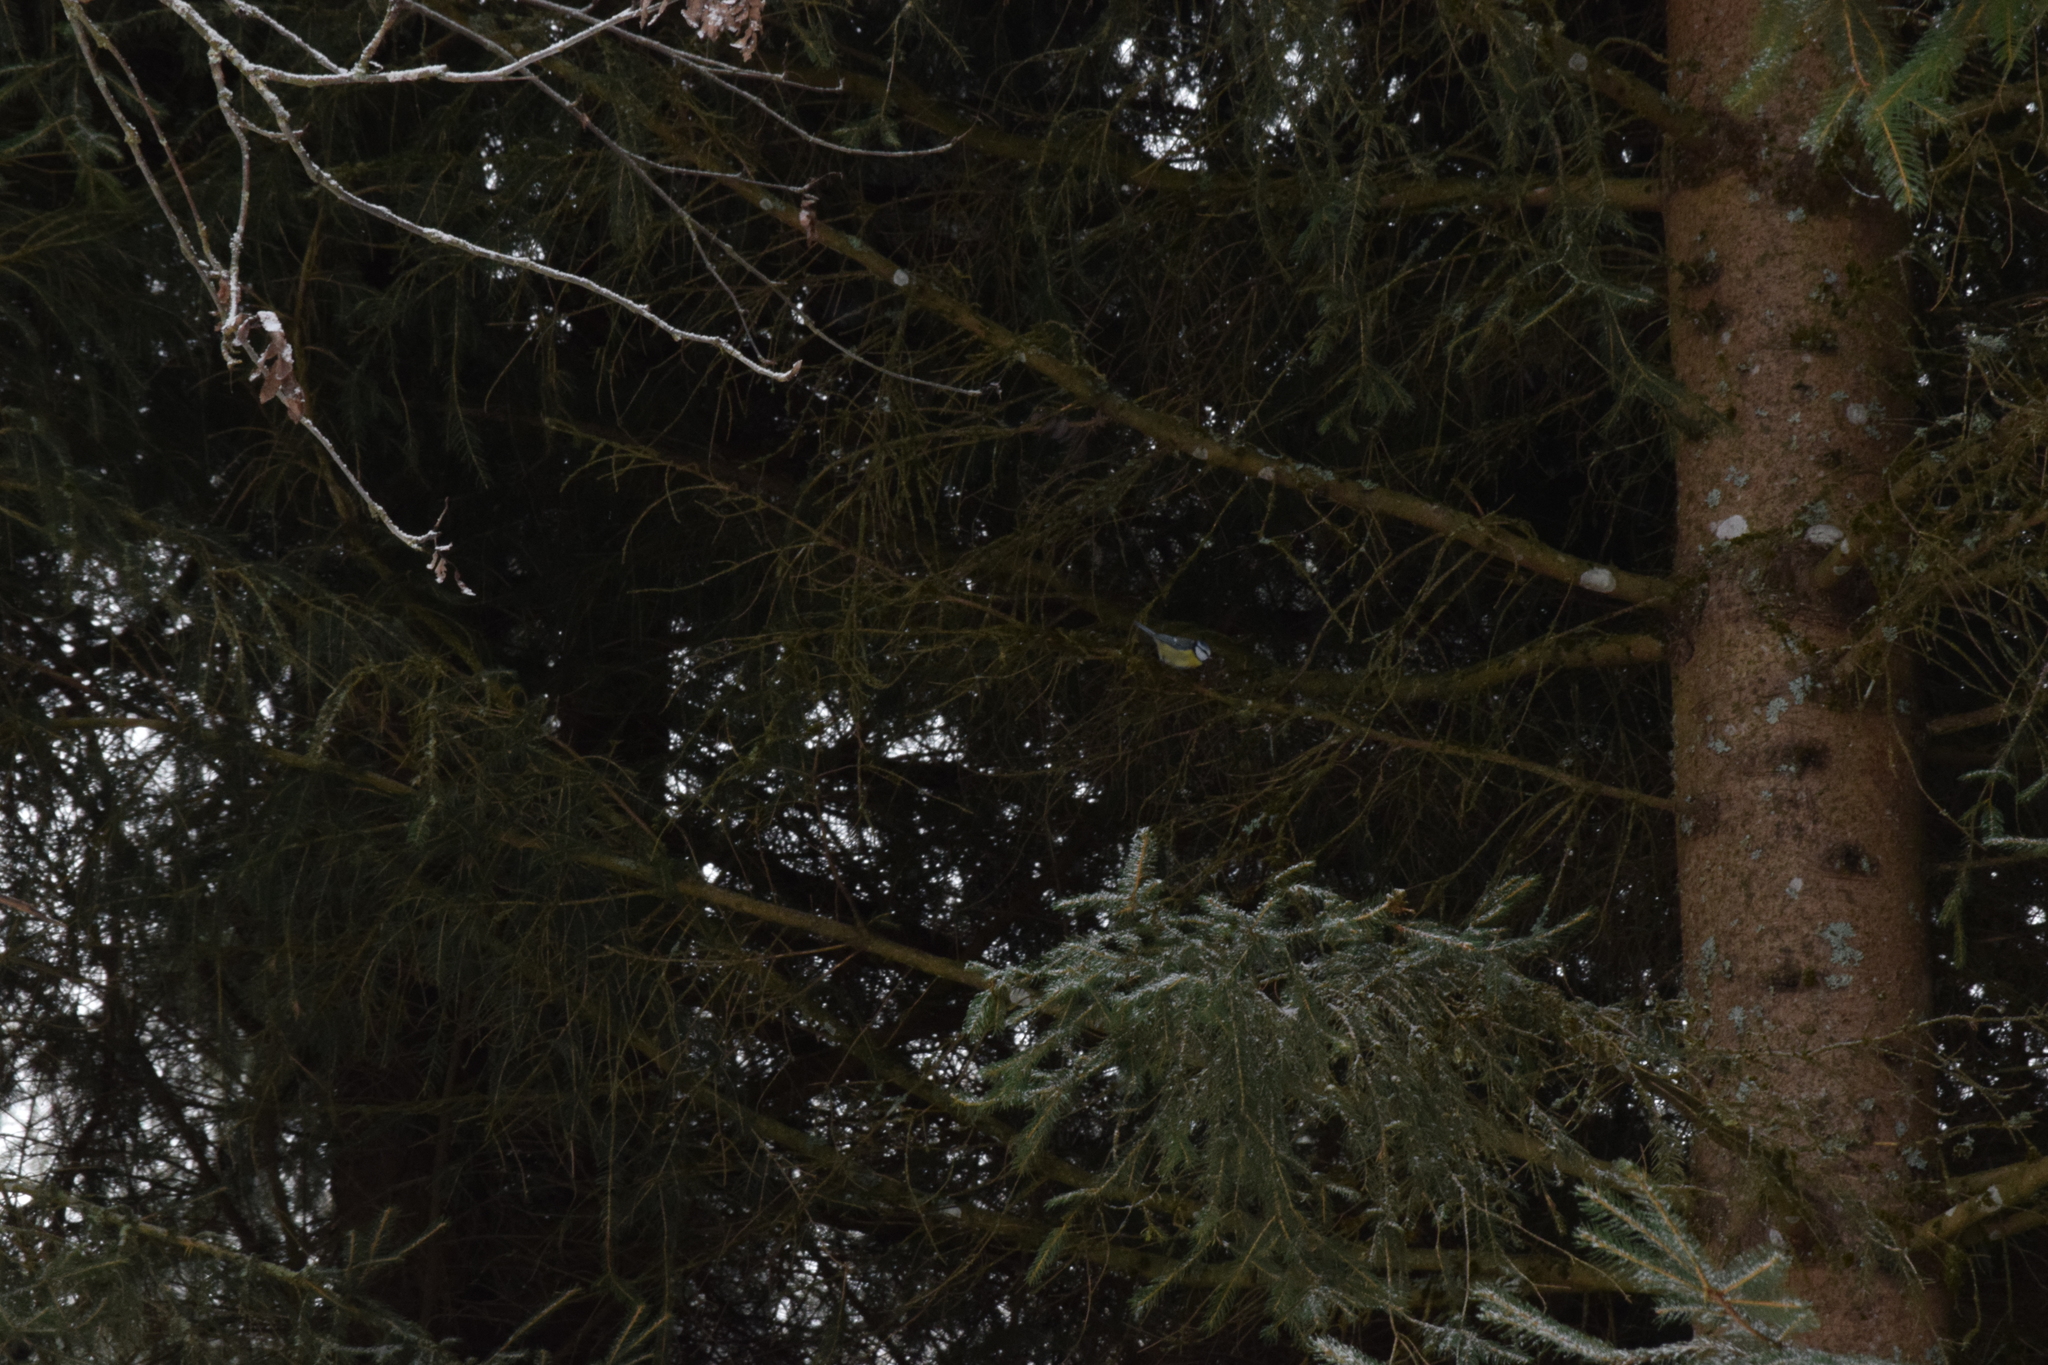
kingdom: Animalia
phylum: Chordata
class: Aves
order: Passeriformes
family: Paridae
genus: Cyanistes
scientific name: Cyanistes caeruleus
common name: Eurasian blue tit
